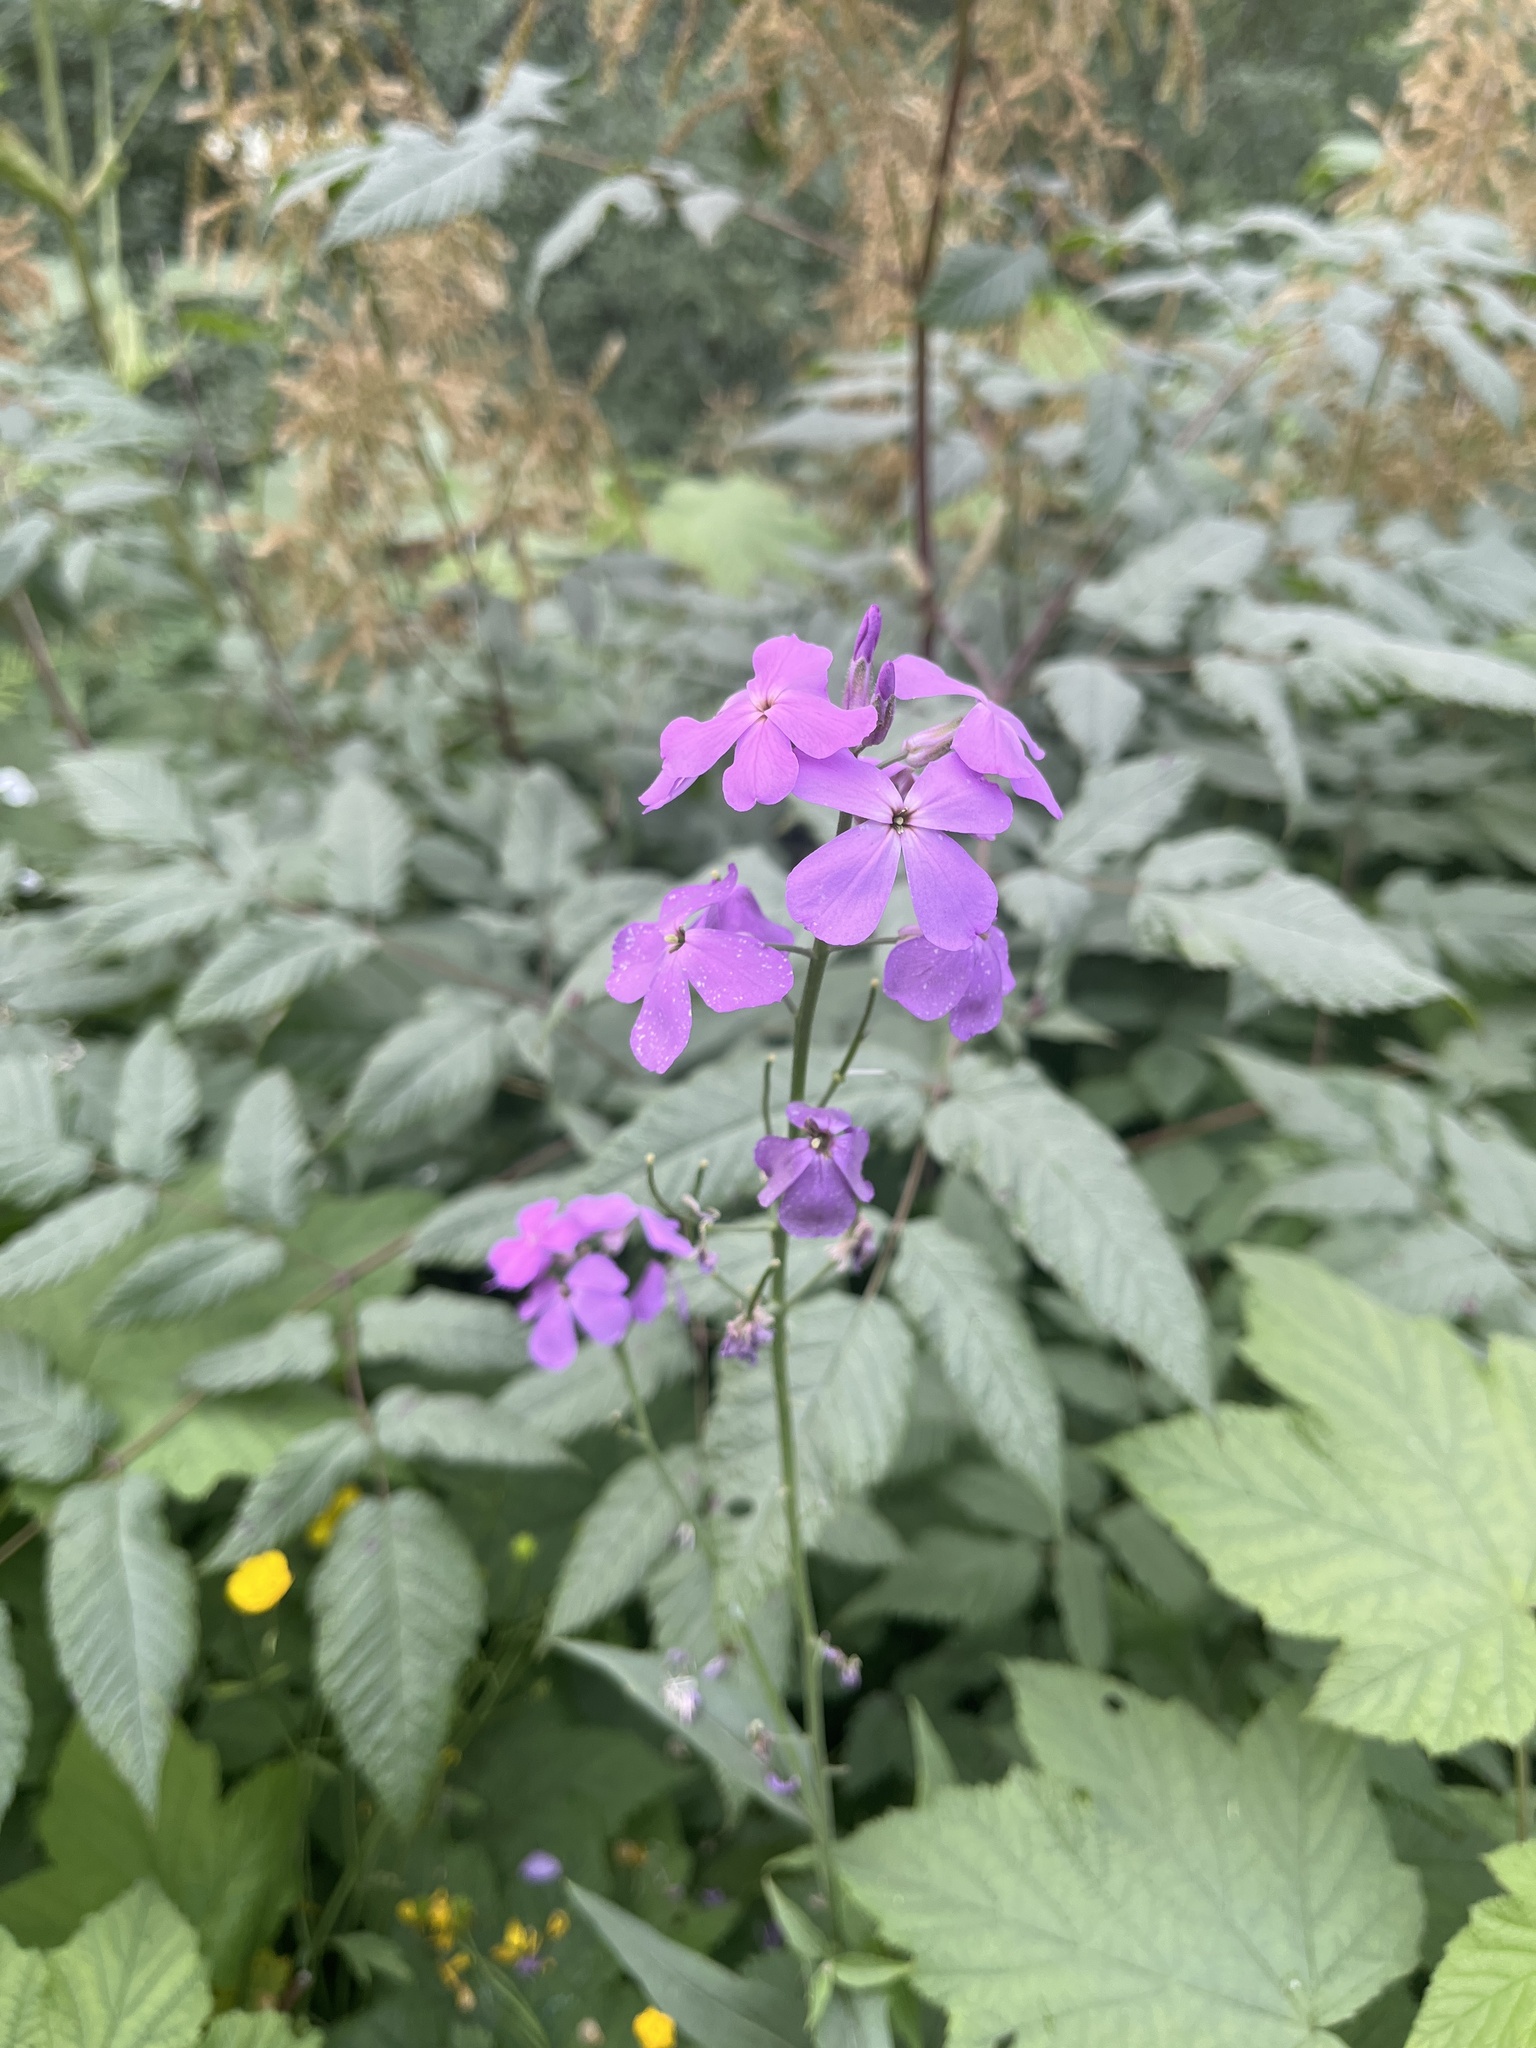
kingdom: Plantae
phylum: Tracheophyta
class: Magnoliopsida
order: Brassicales
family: Brassicaceae
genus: Hesperis
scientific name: Hesperis matronalis
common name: Dame's-violet
